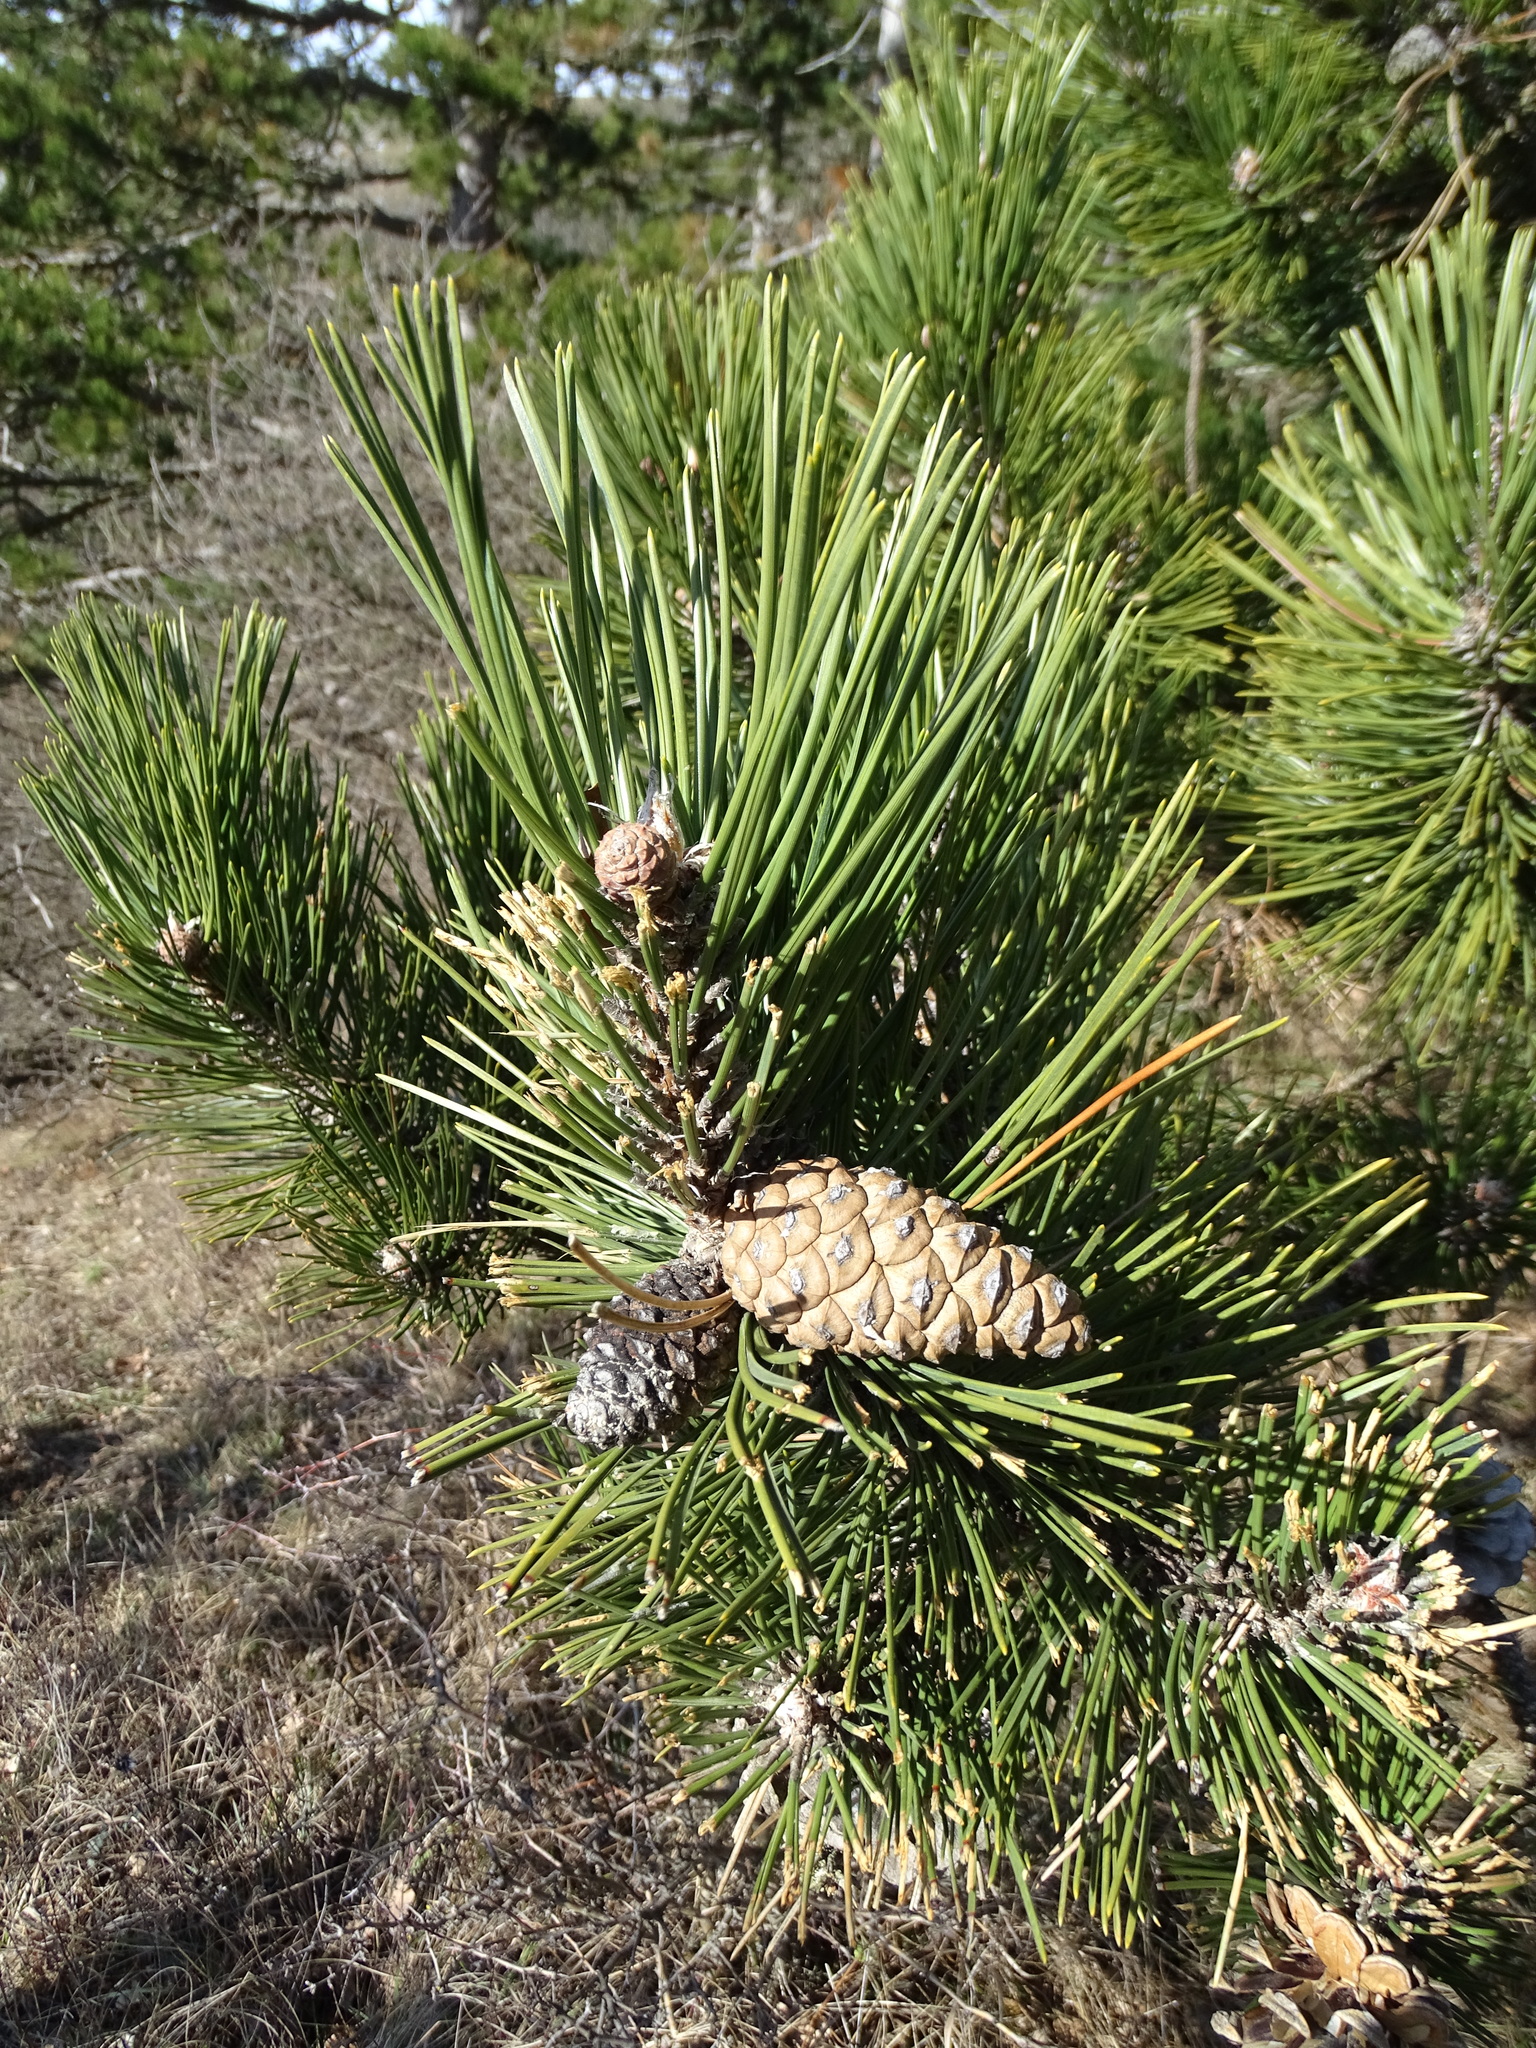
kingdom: Plantae
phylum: Tracheophyta
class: Pinopsida
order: Pinales
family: Pinaceae
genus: Pinus
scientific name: Pinus nigra
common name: Austrian pine
